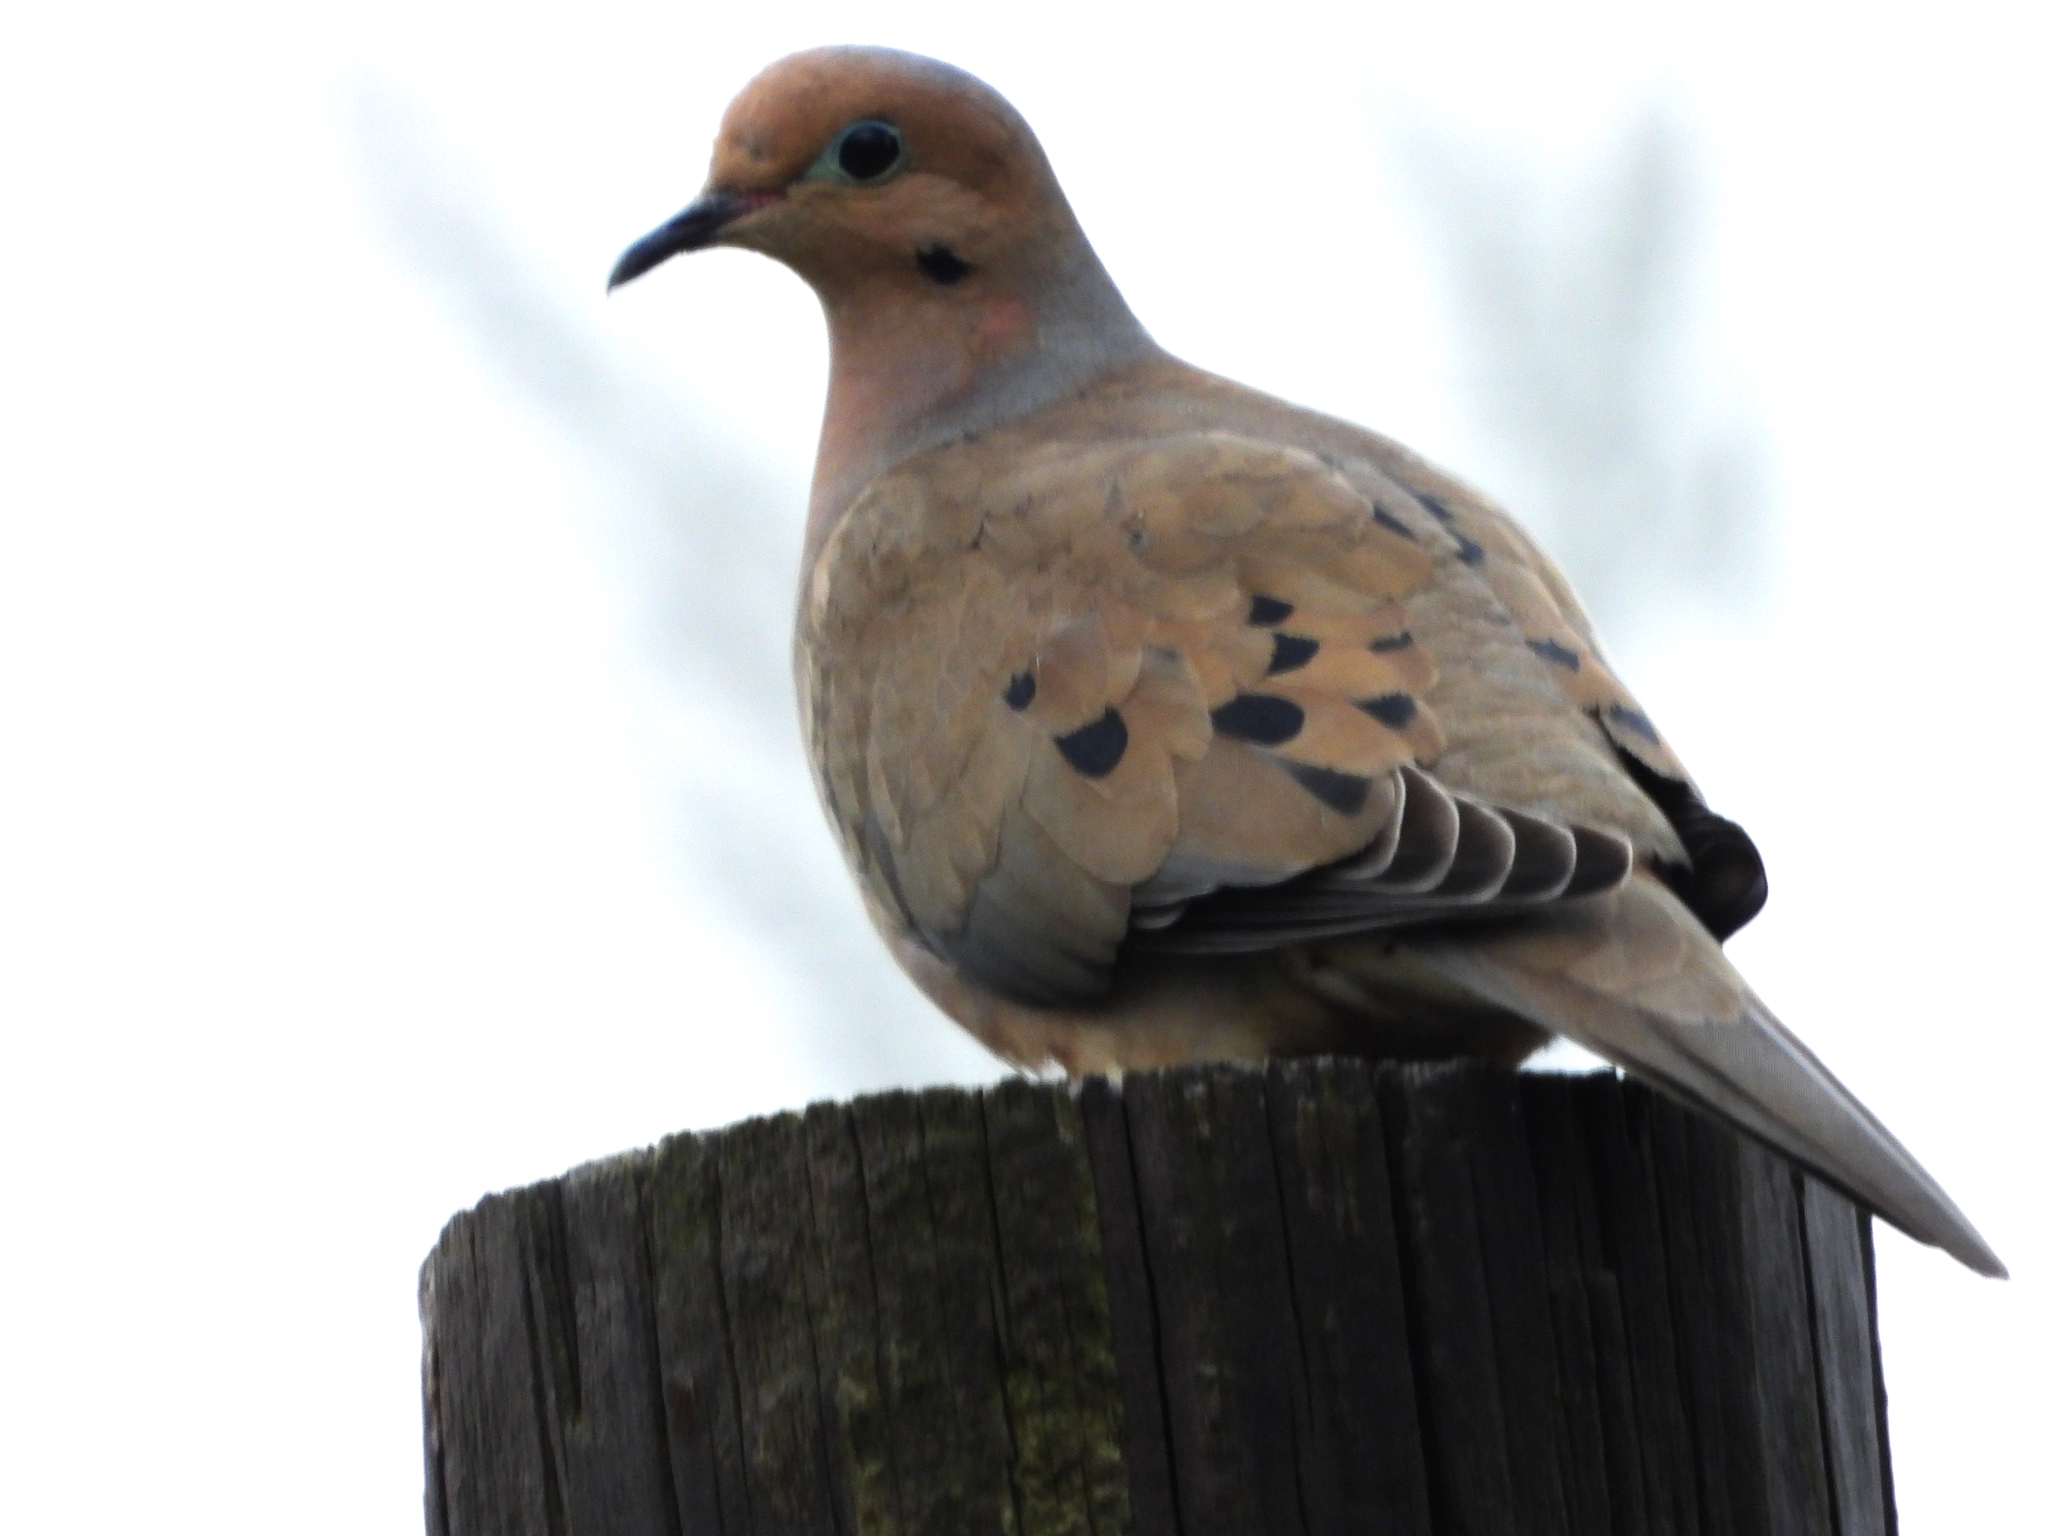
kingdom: Animalia
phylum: Chordata
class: Aves
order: Columbiformes
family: Columbidae
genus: Zenaida
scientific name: Zenaida macroura
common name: Mourning dove
